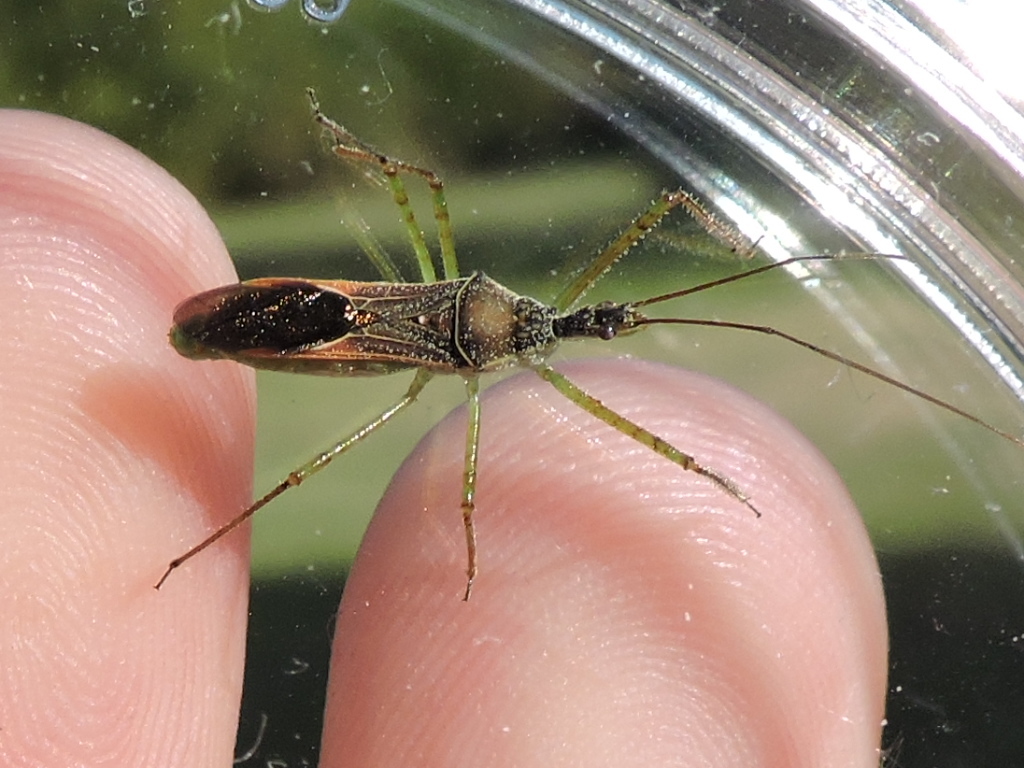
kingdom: Animalia
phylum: Arthropoda
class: Insecta
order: Hemiptera
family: Reduviidae
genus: Zelus
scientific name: Zelus renardii
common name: Assassin bug
